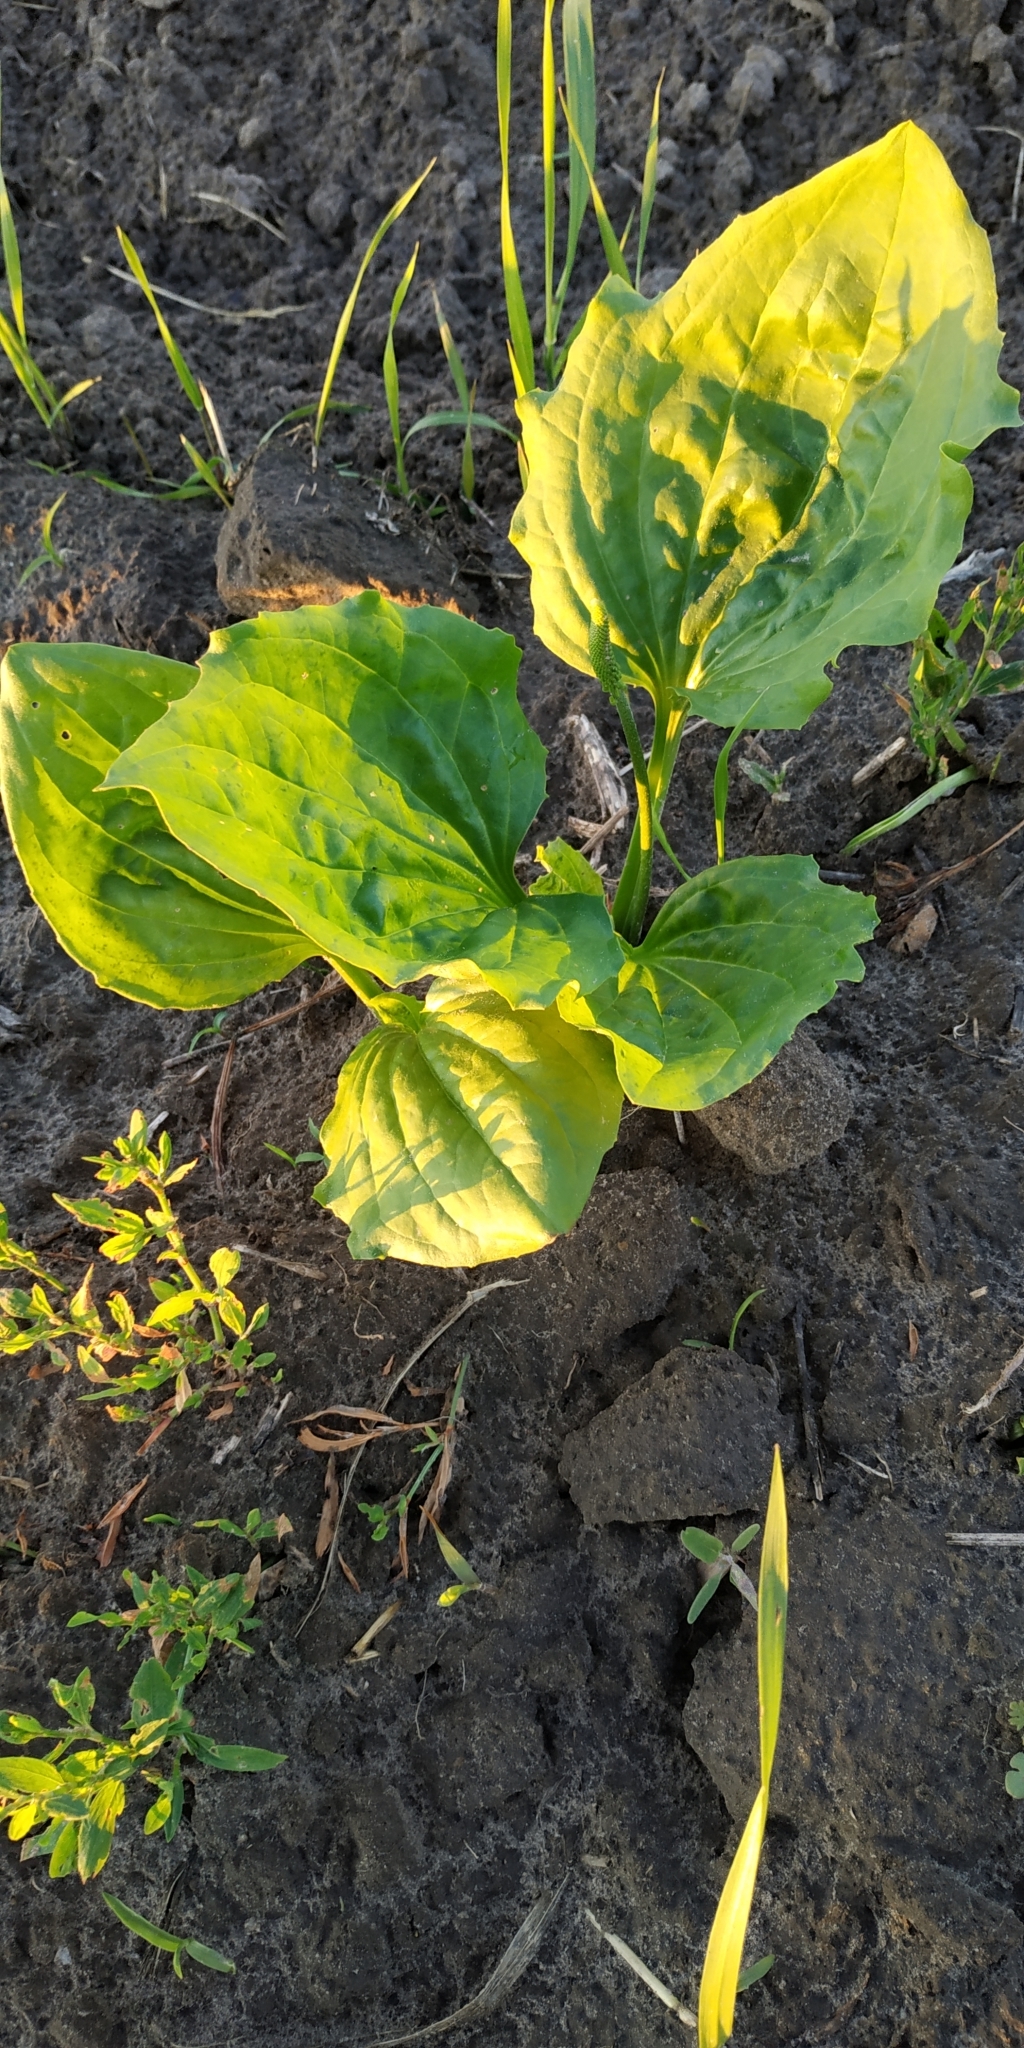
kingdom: Plantae
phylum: Tracheophyta
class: Magnoliopsida
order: Lamiales
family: Plantaginaceae
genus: Plantago
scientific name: Plantago major
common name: Common plantain
